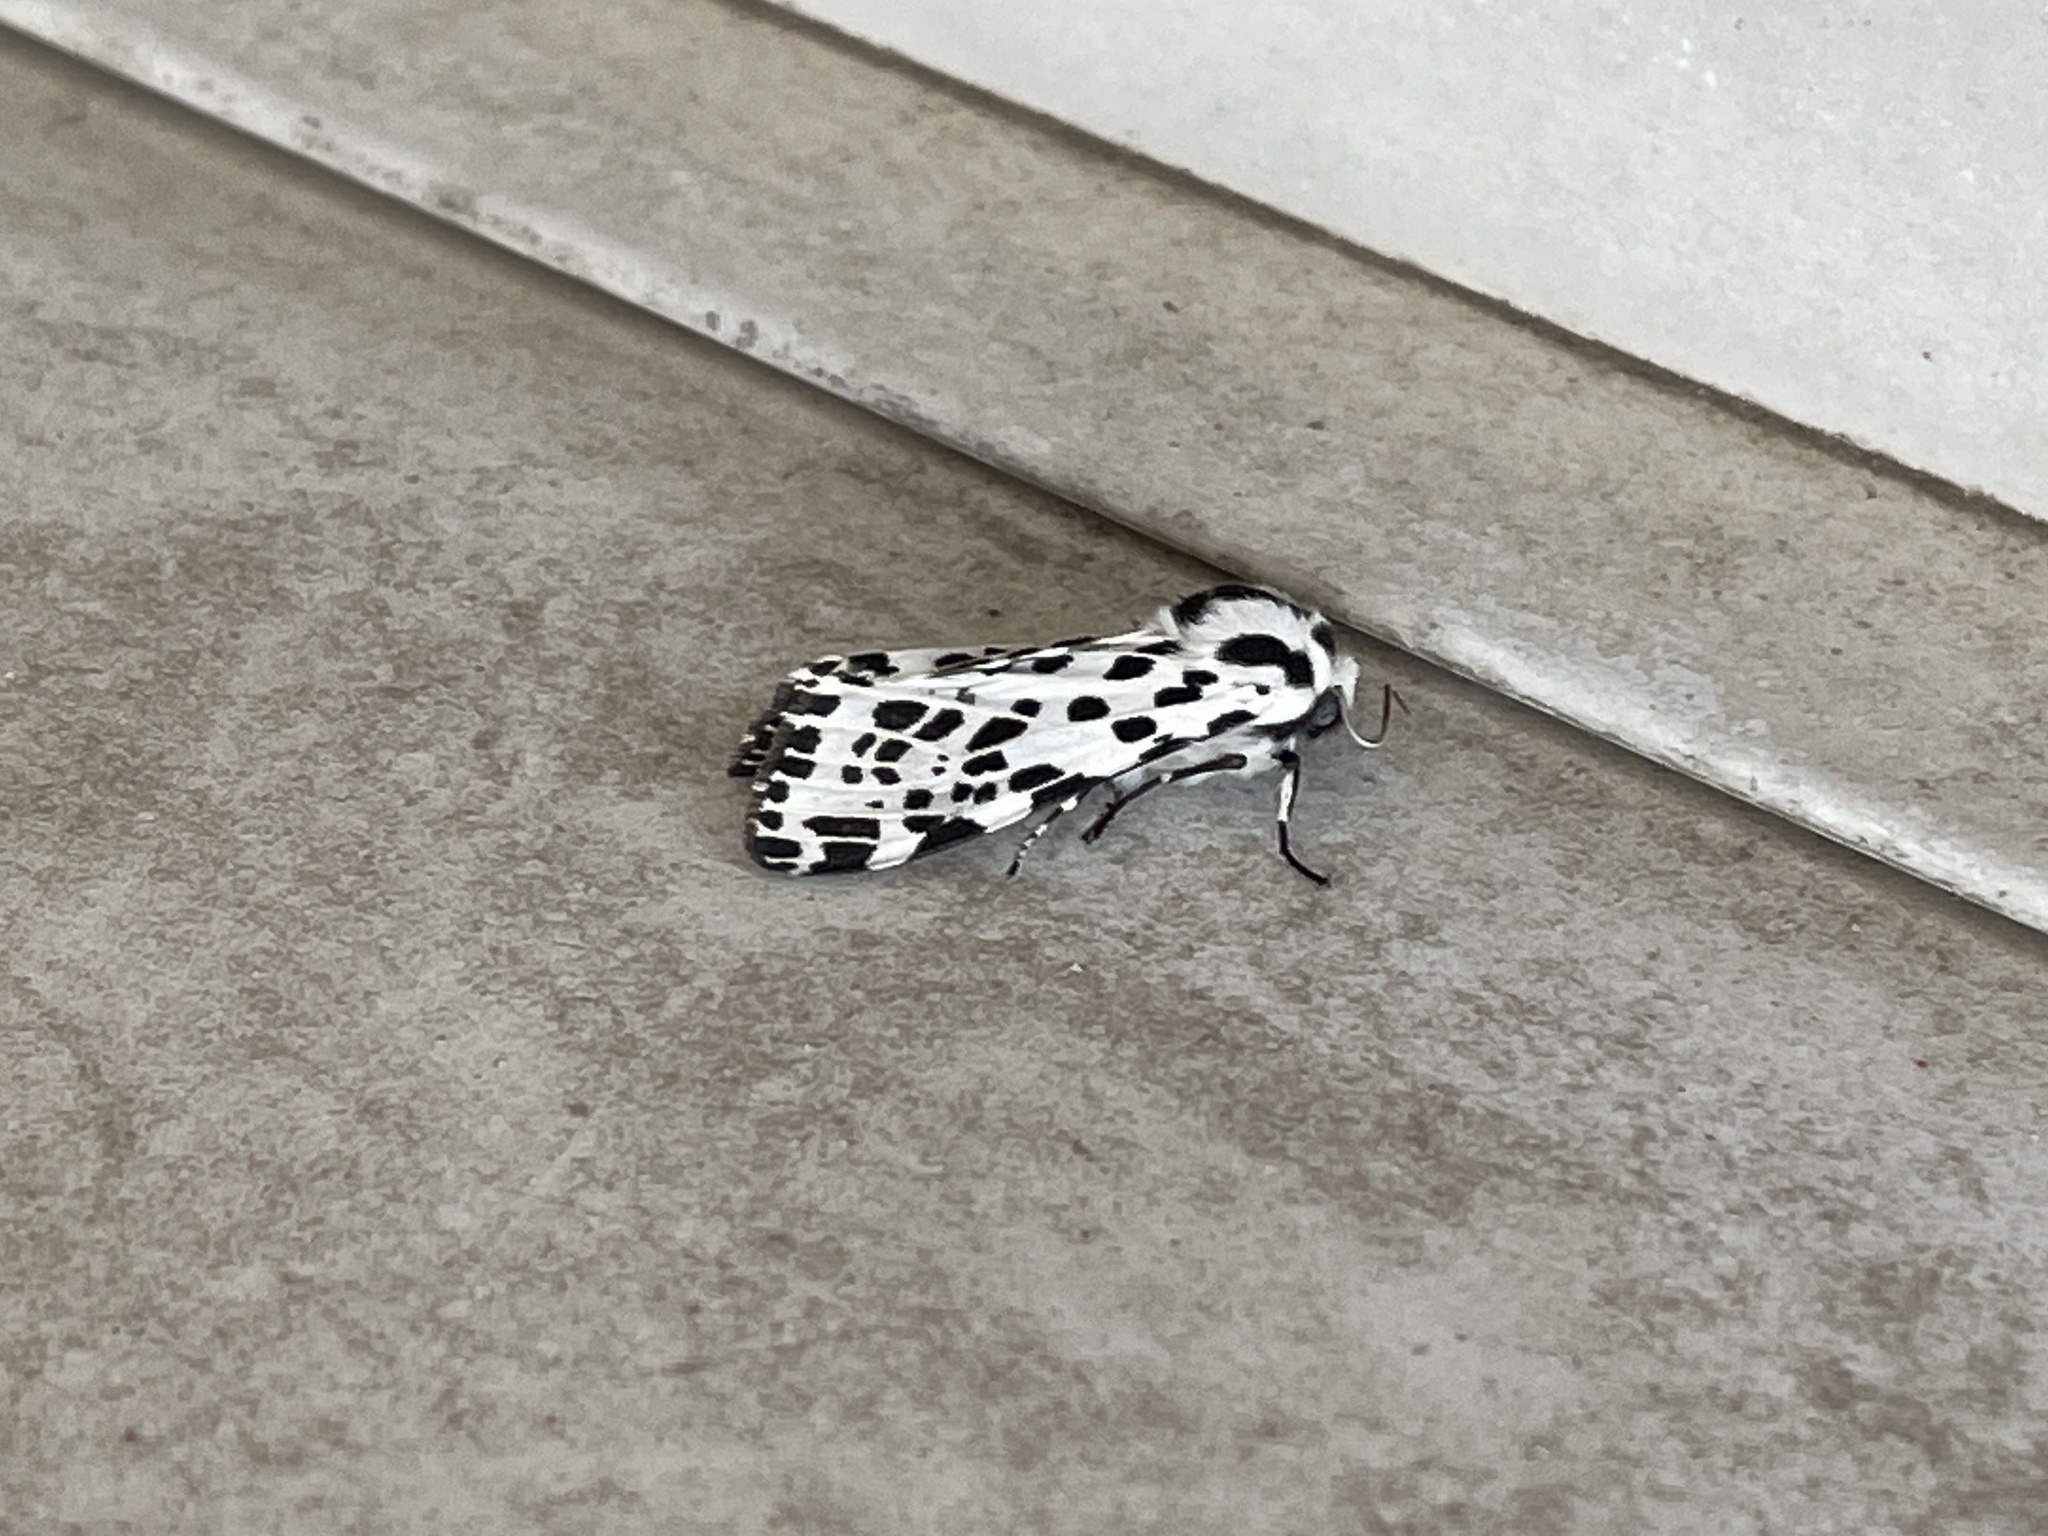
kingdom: Animalia
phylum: Arthropoda
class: Insecta
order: Lepidoptera
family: Erebidae
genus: Hypercompe
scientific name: Hypercompe permaculata
